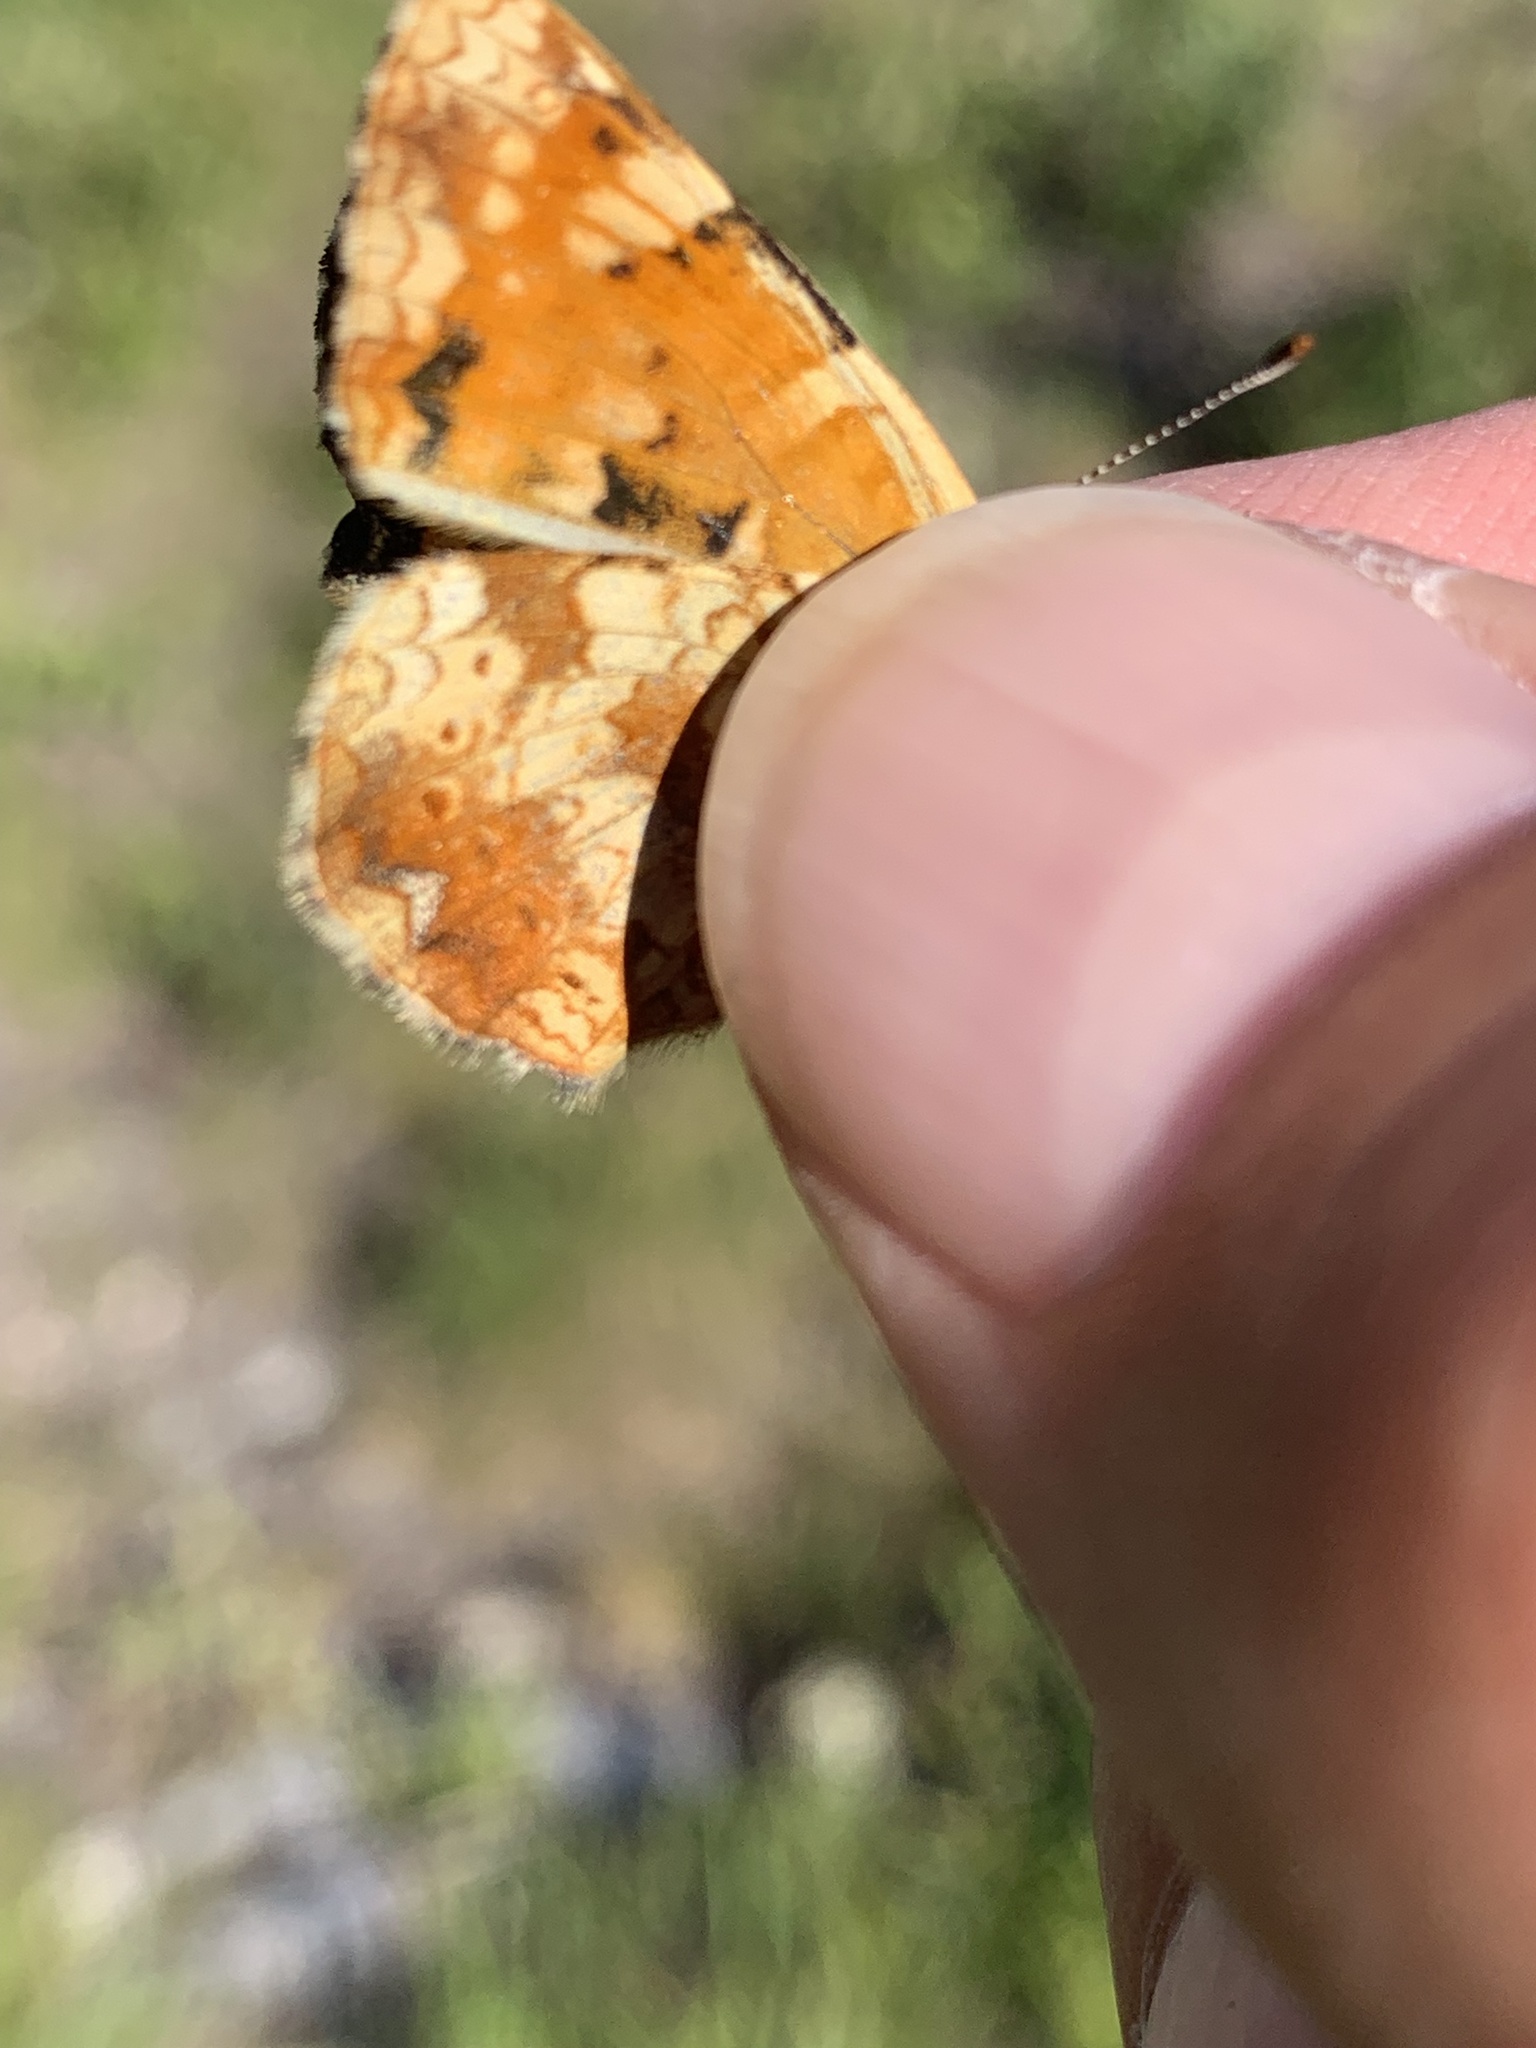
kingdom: Animalia
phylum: Arthropoda
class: Insecta
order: Lepidoptera
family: Nymphalidae
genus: Phyciodes
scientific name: Phyciodes tharos
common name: Pearl crescent
